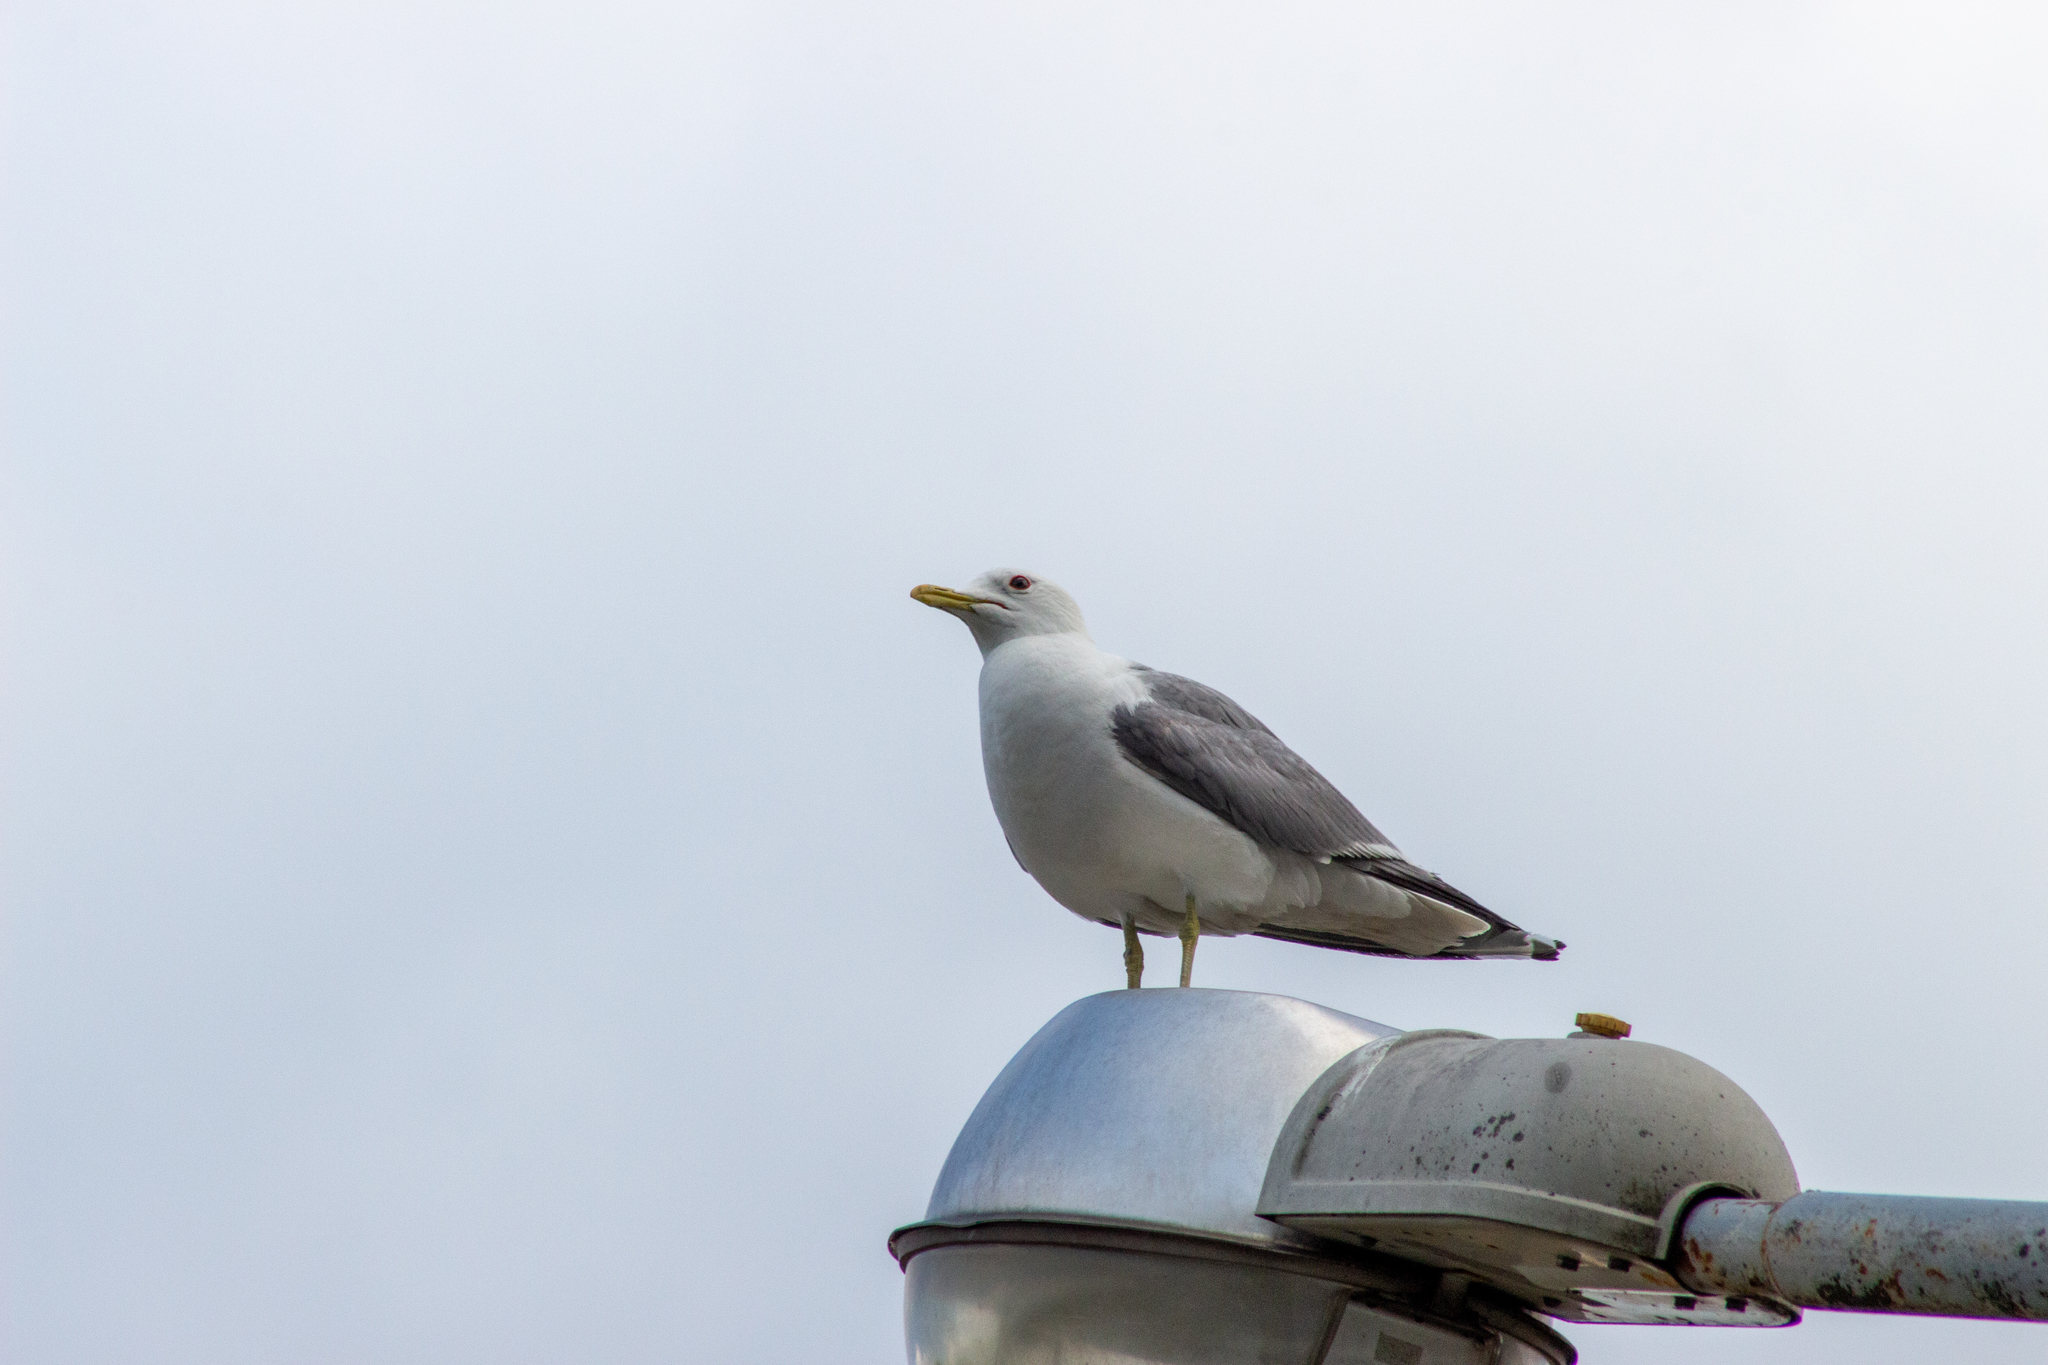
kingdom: Animalia
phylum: Chordata
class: Aves
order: Charadriiformes
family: Laridae
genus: Larus
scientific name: Larus canus
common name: Mew gull
